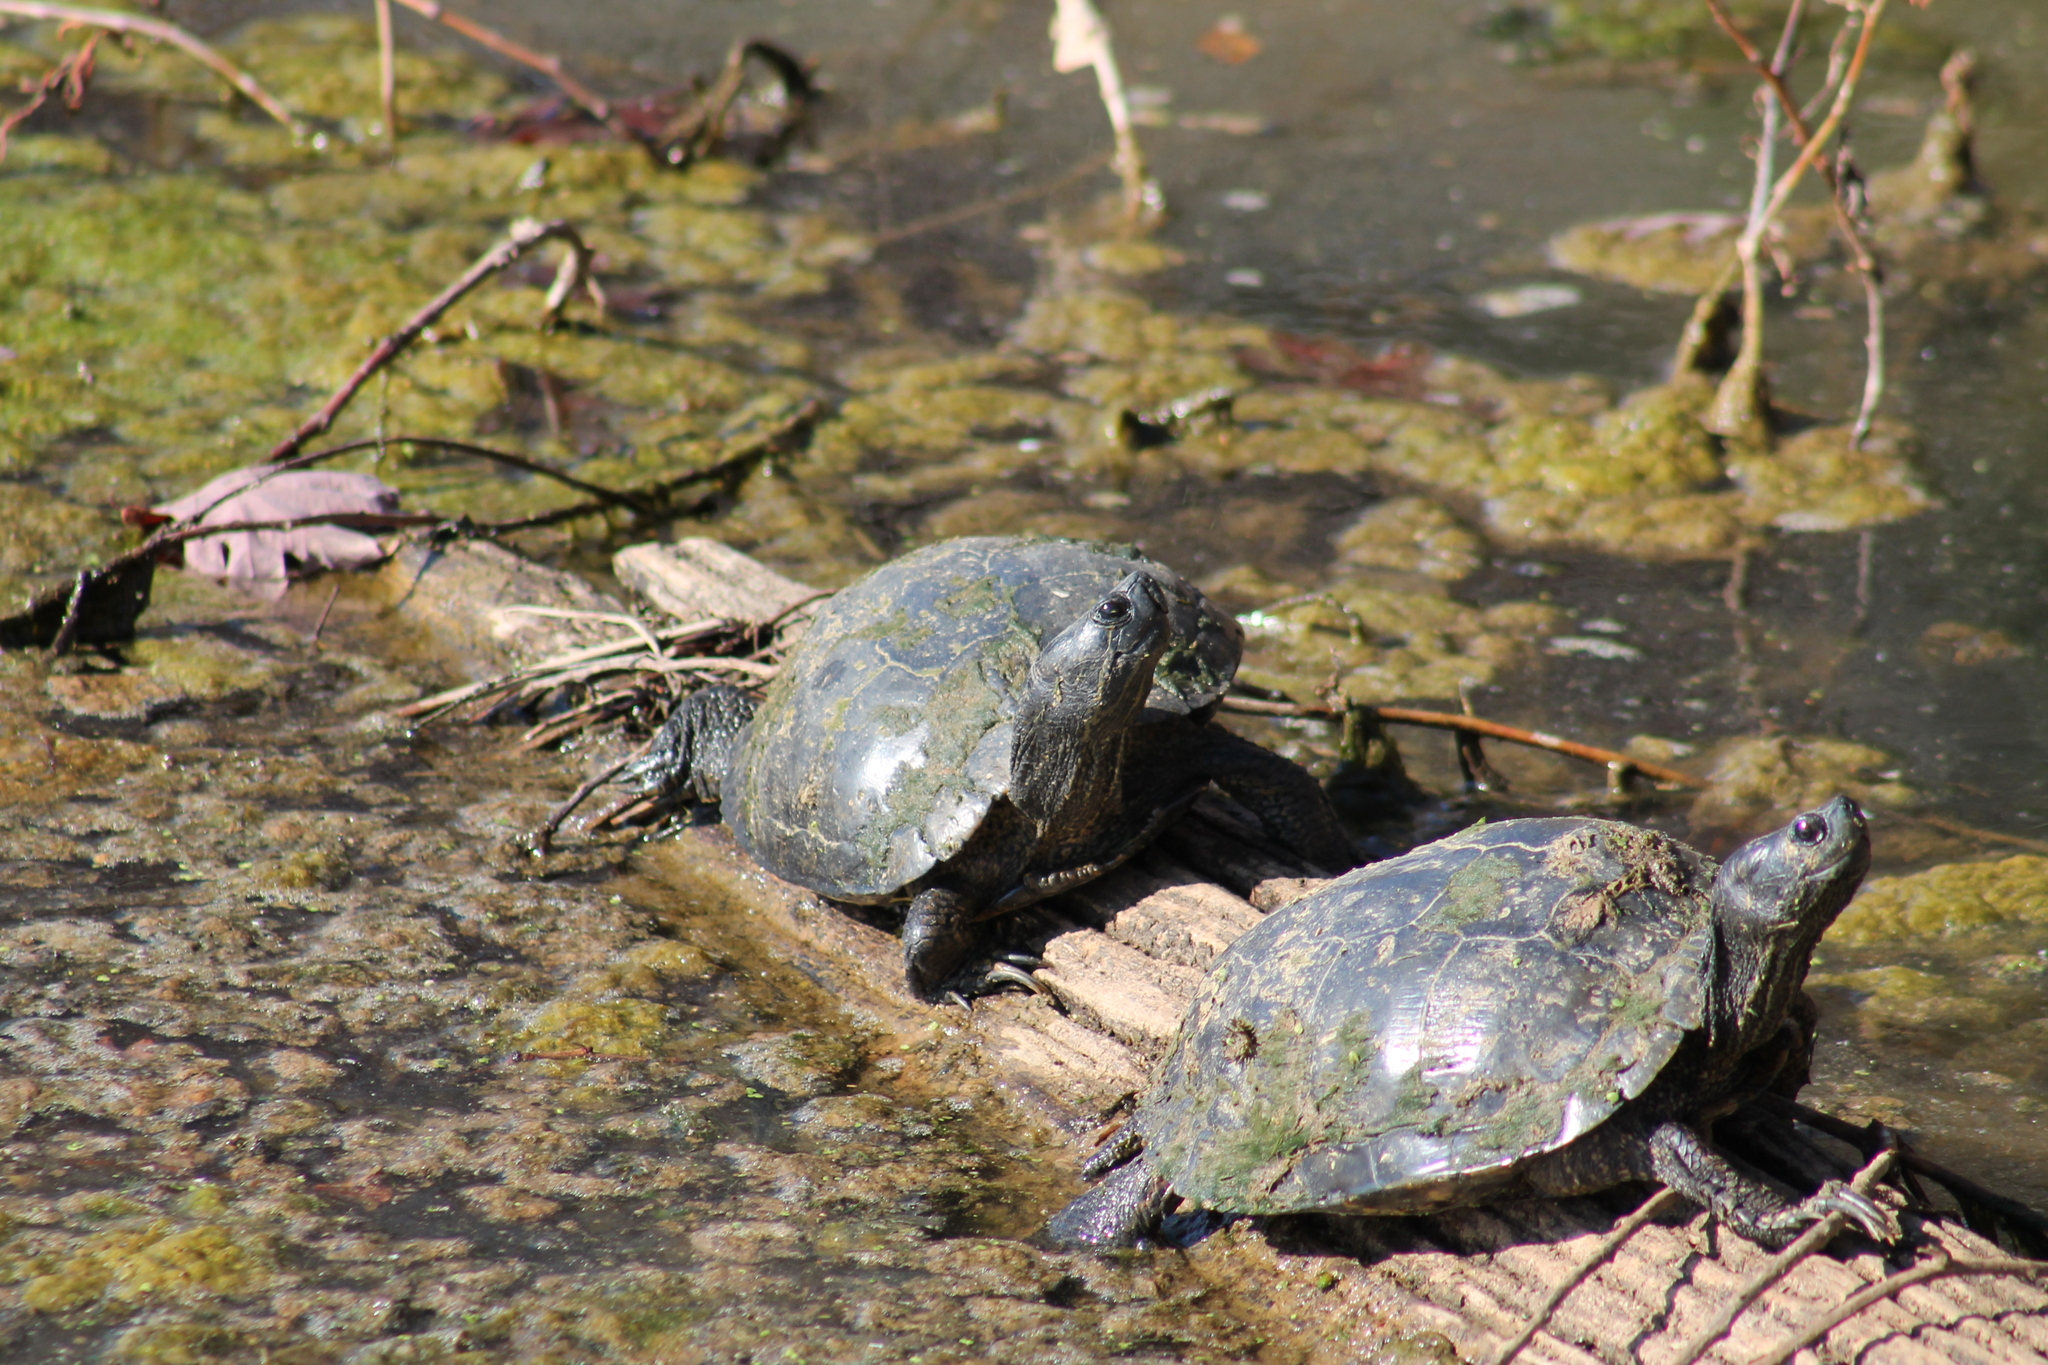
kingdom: Animalia
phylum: Chordata
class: Testudines
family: Emydidae
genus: Trachemys
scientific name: Trachemys scripta
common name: Slider
